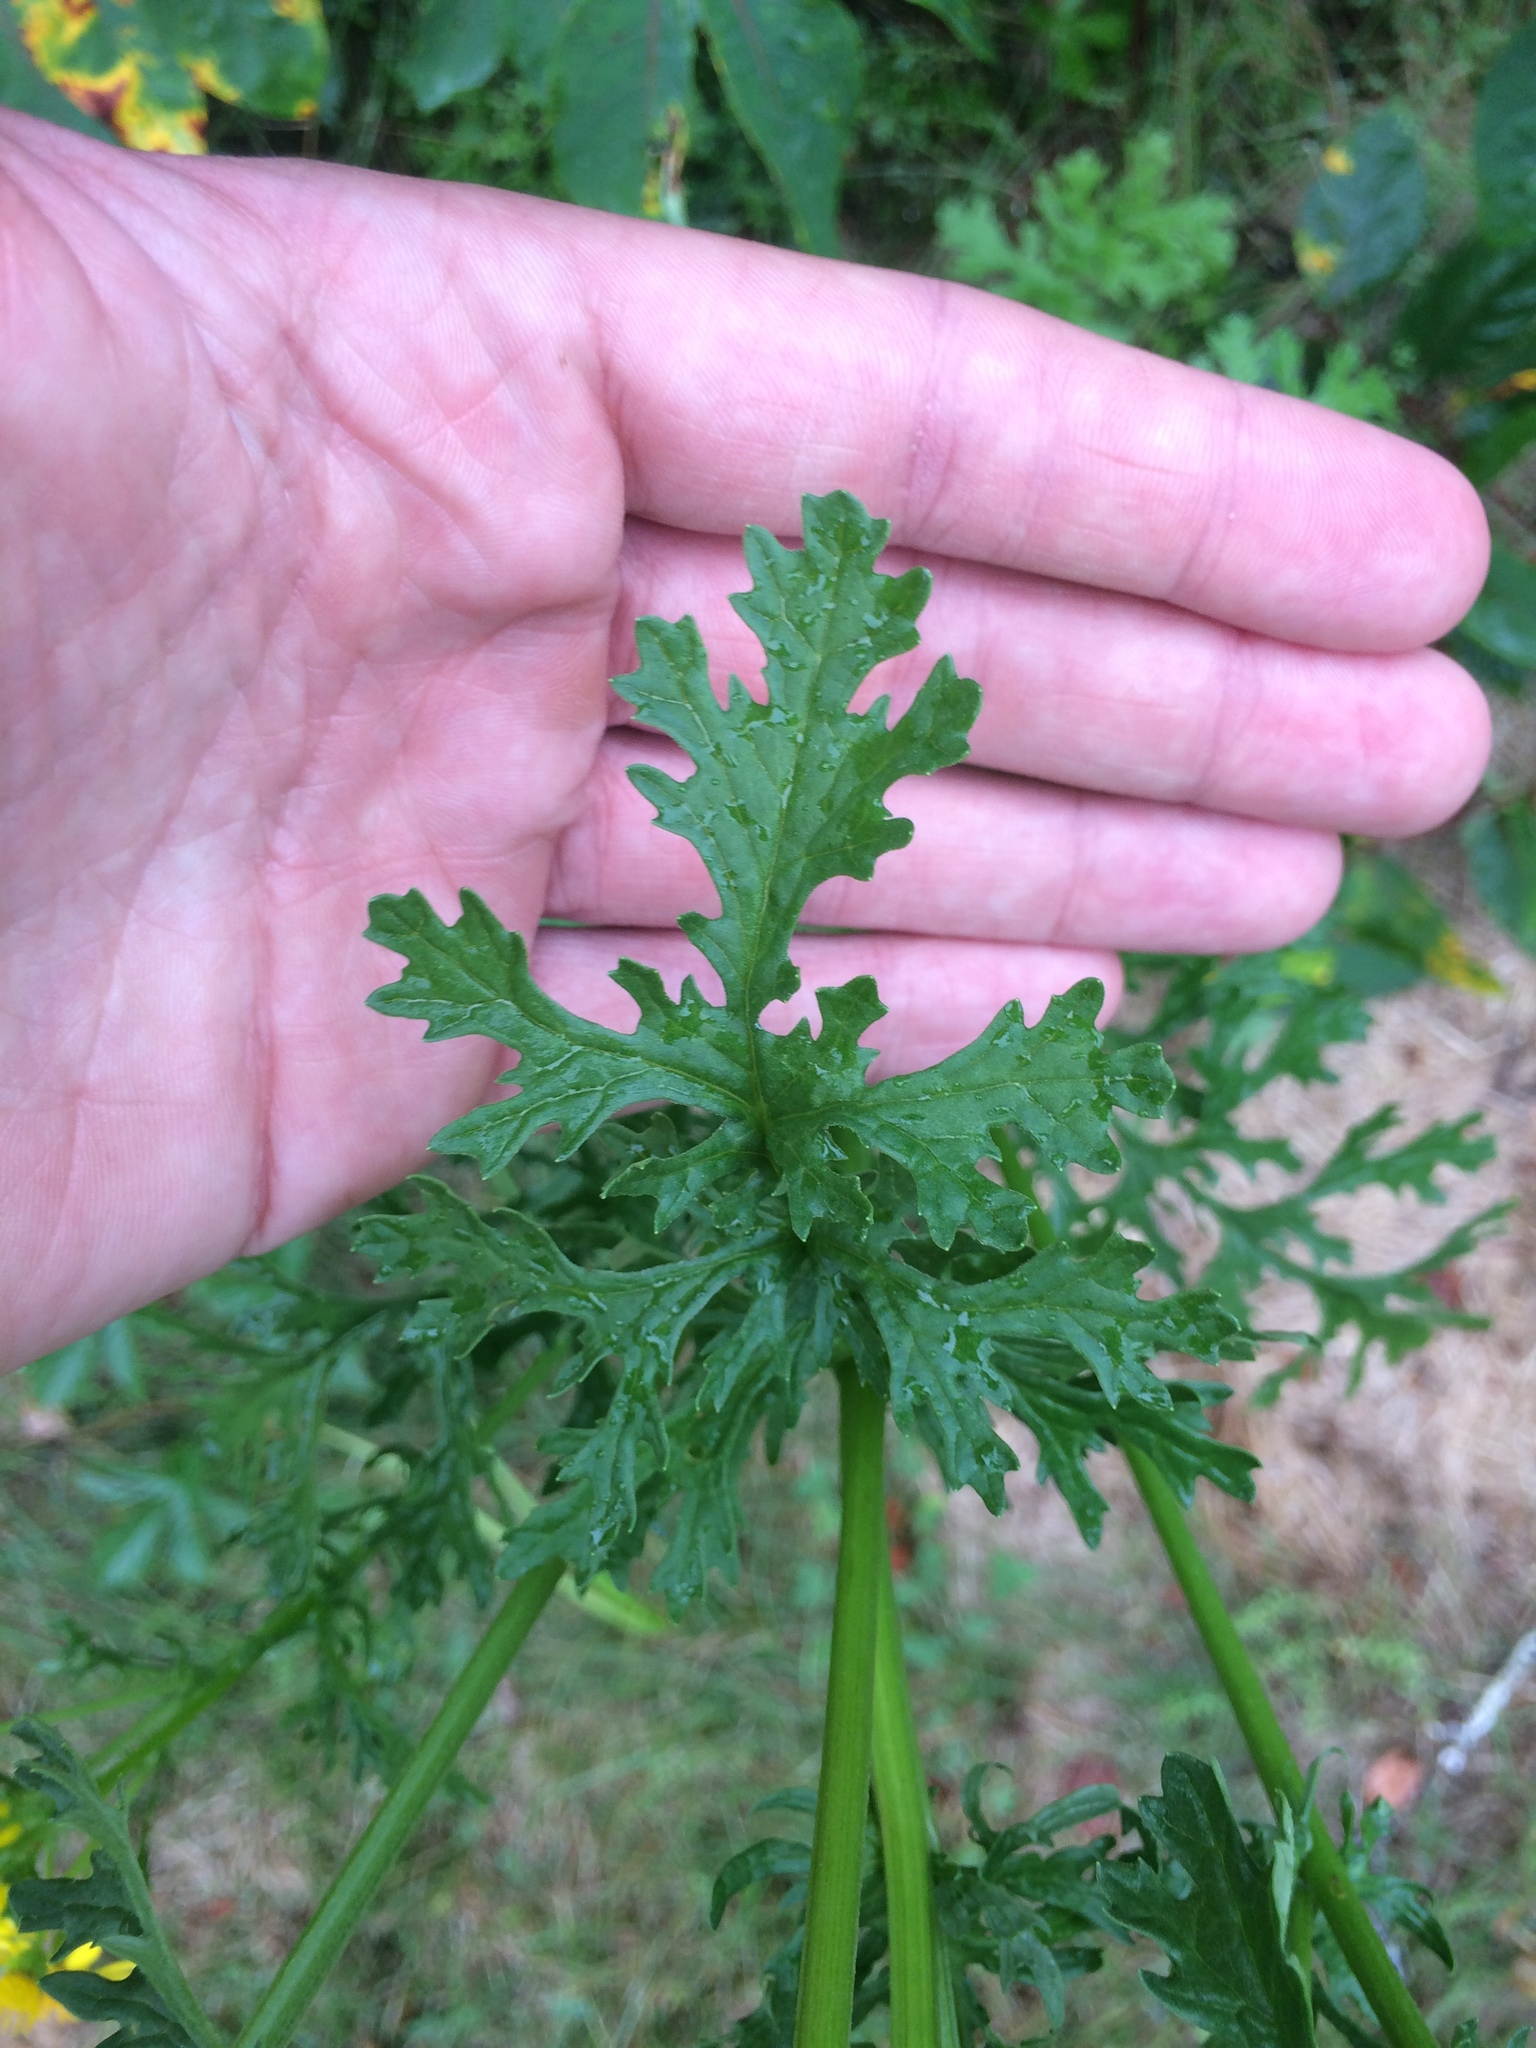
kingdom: Plantae
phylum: Tracheophyta
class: Magnoliopsida
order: Asterales
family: Asteraceae
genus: Jacobaea
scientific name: Jacobaea vulgaris
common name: Stinking willie
